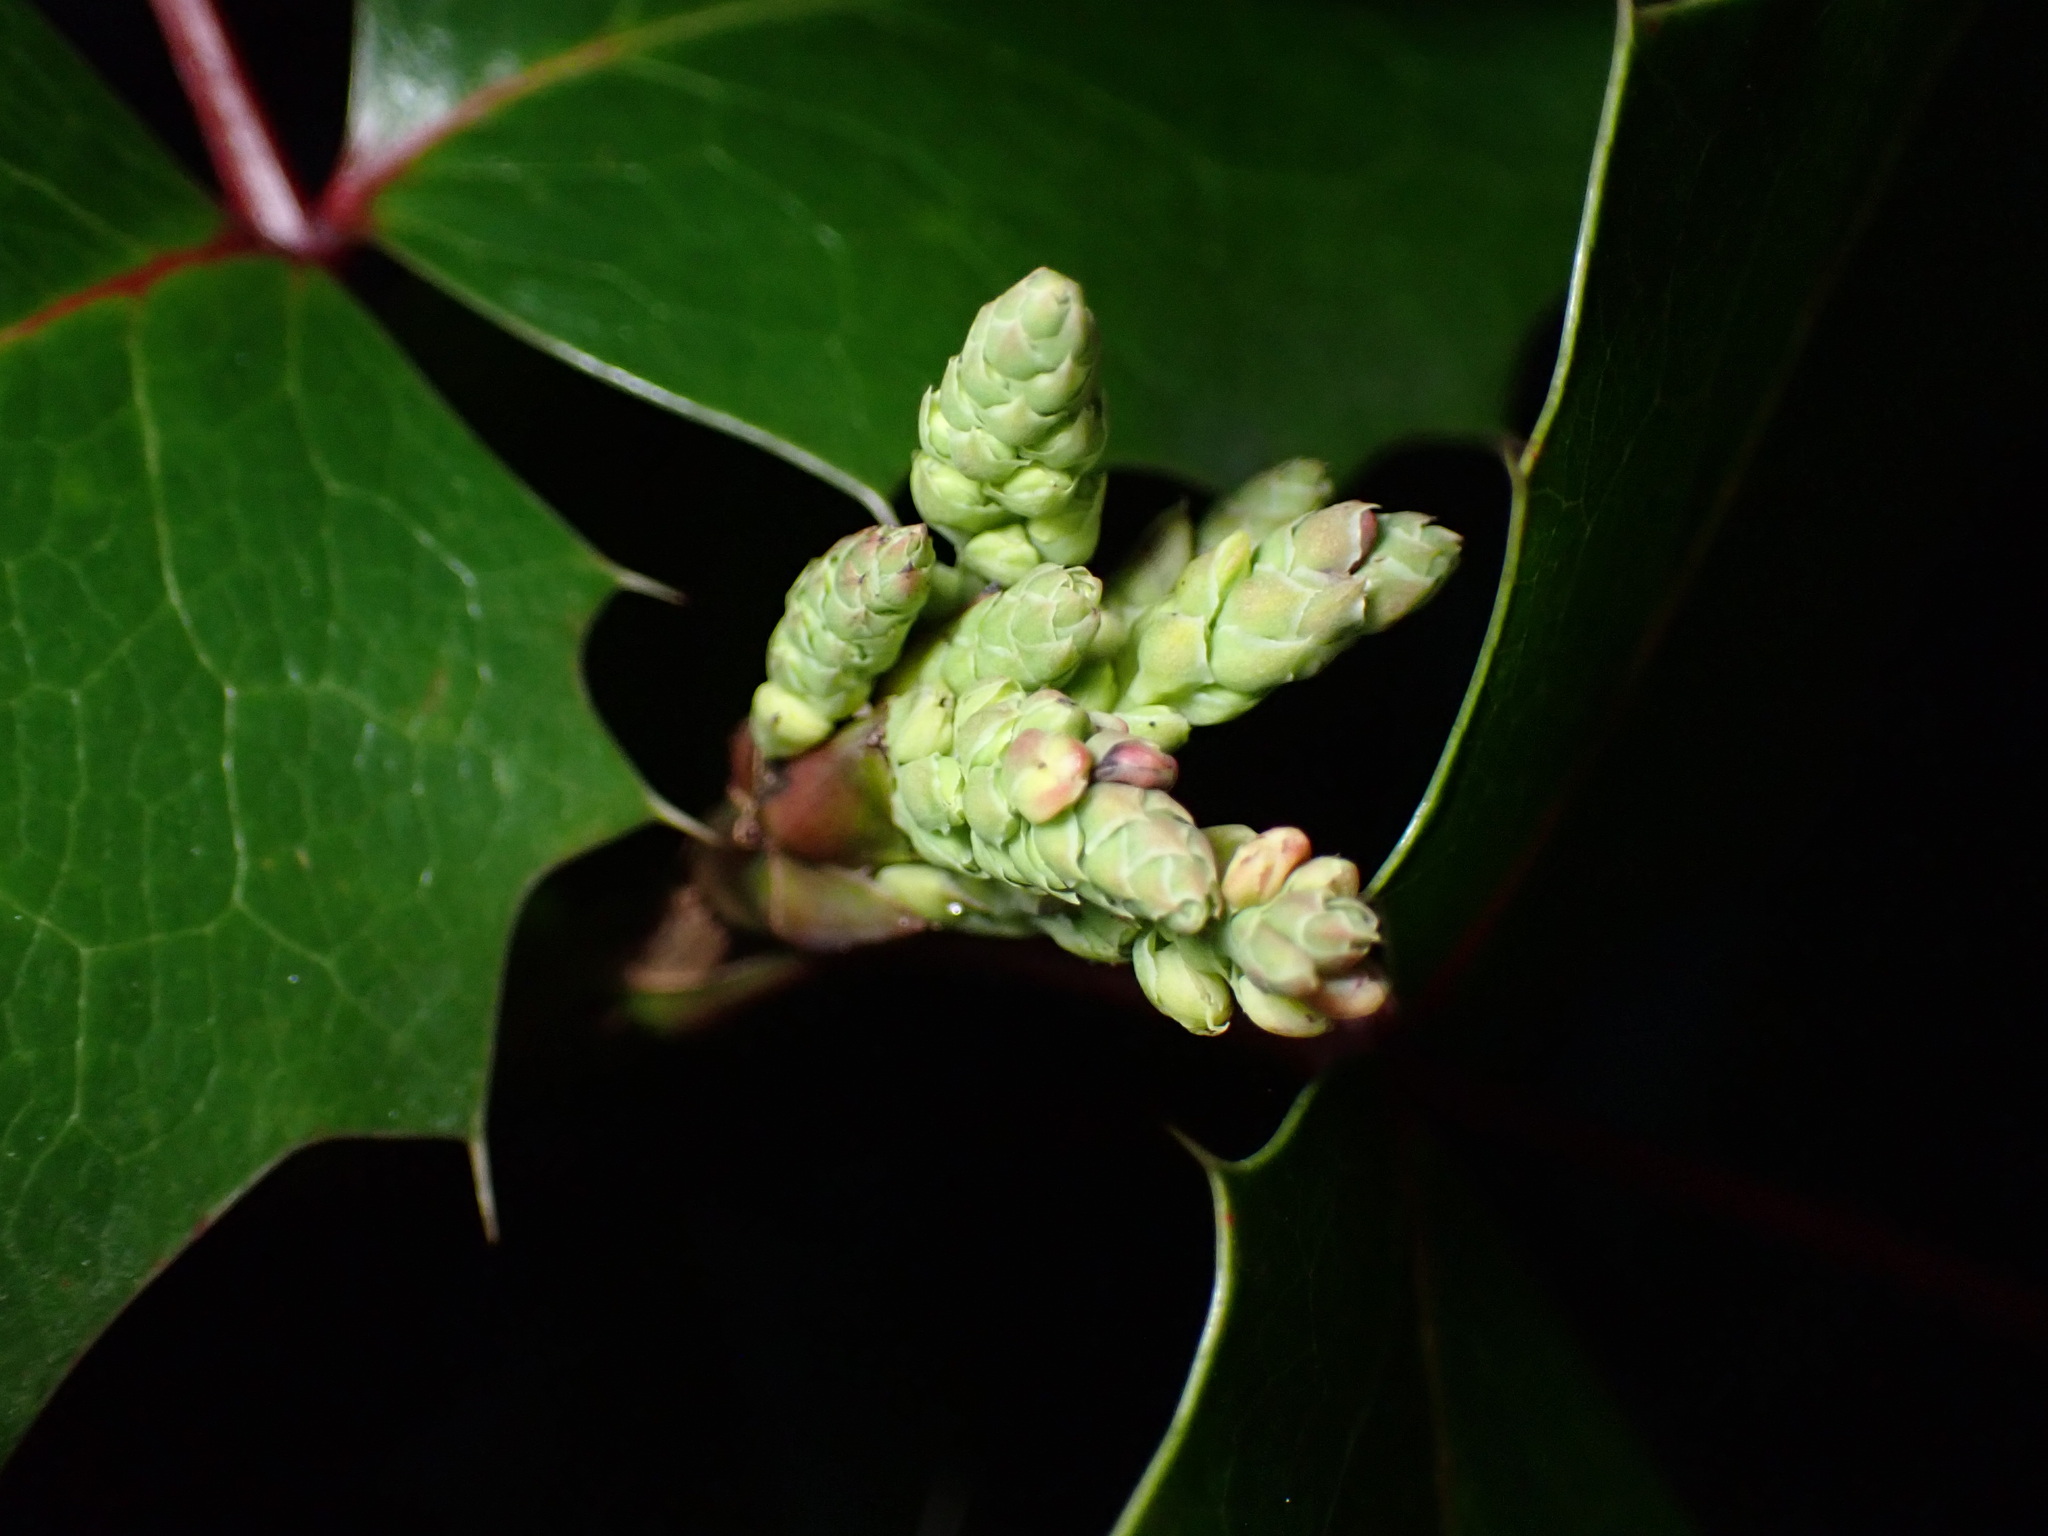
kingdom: Plantae
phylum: Tracheophyta
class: Magnoliopsida
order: Ranunculales
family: Berberidaceae
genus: Mahonia
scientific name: Mahonia aquifolium
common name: Oregon-grape
